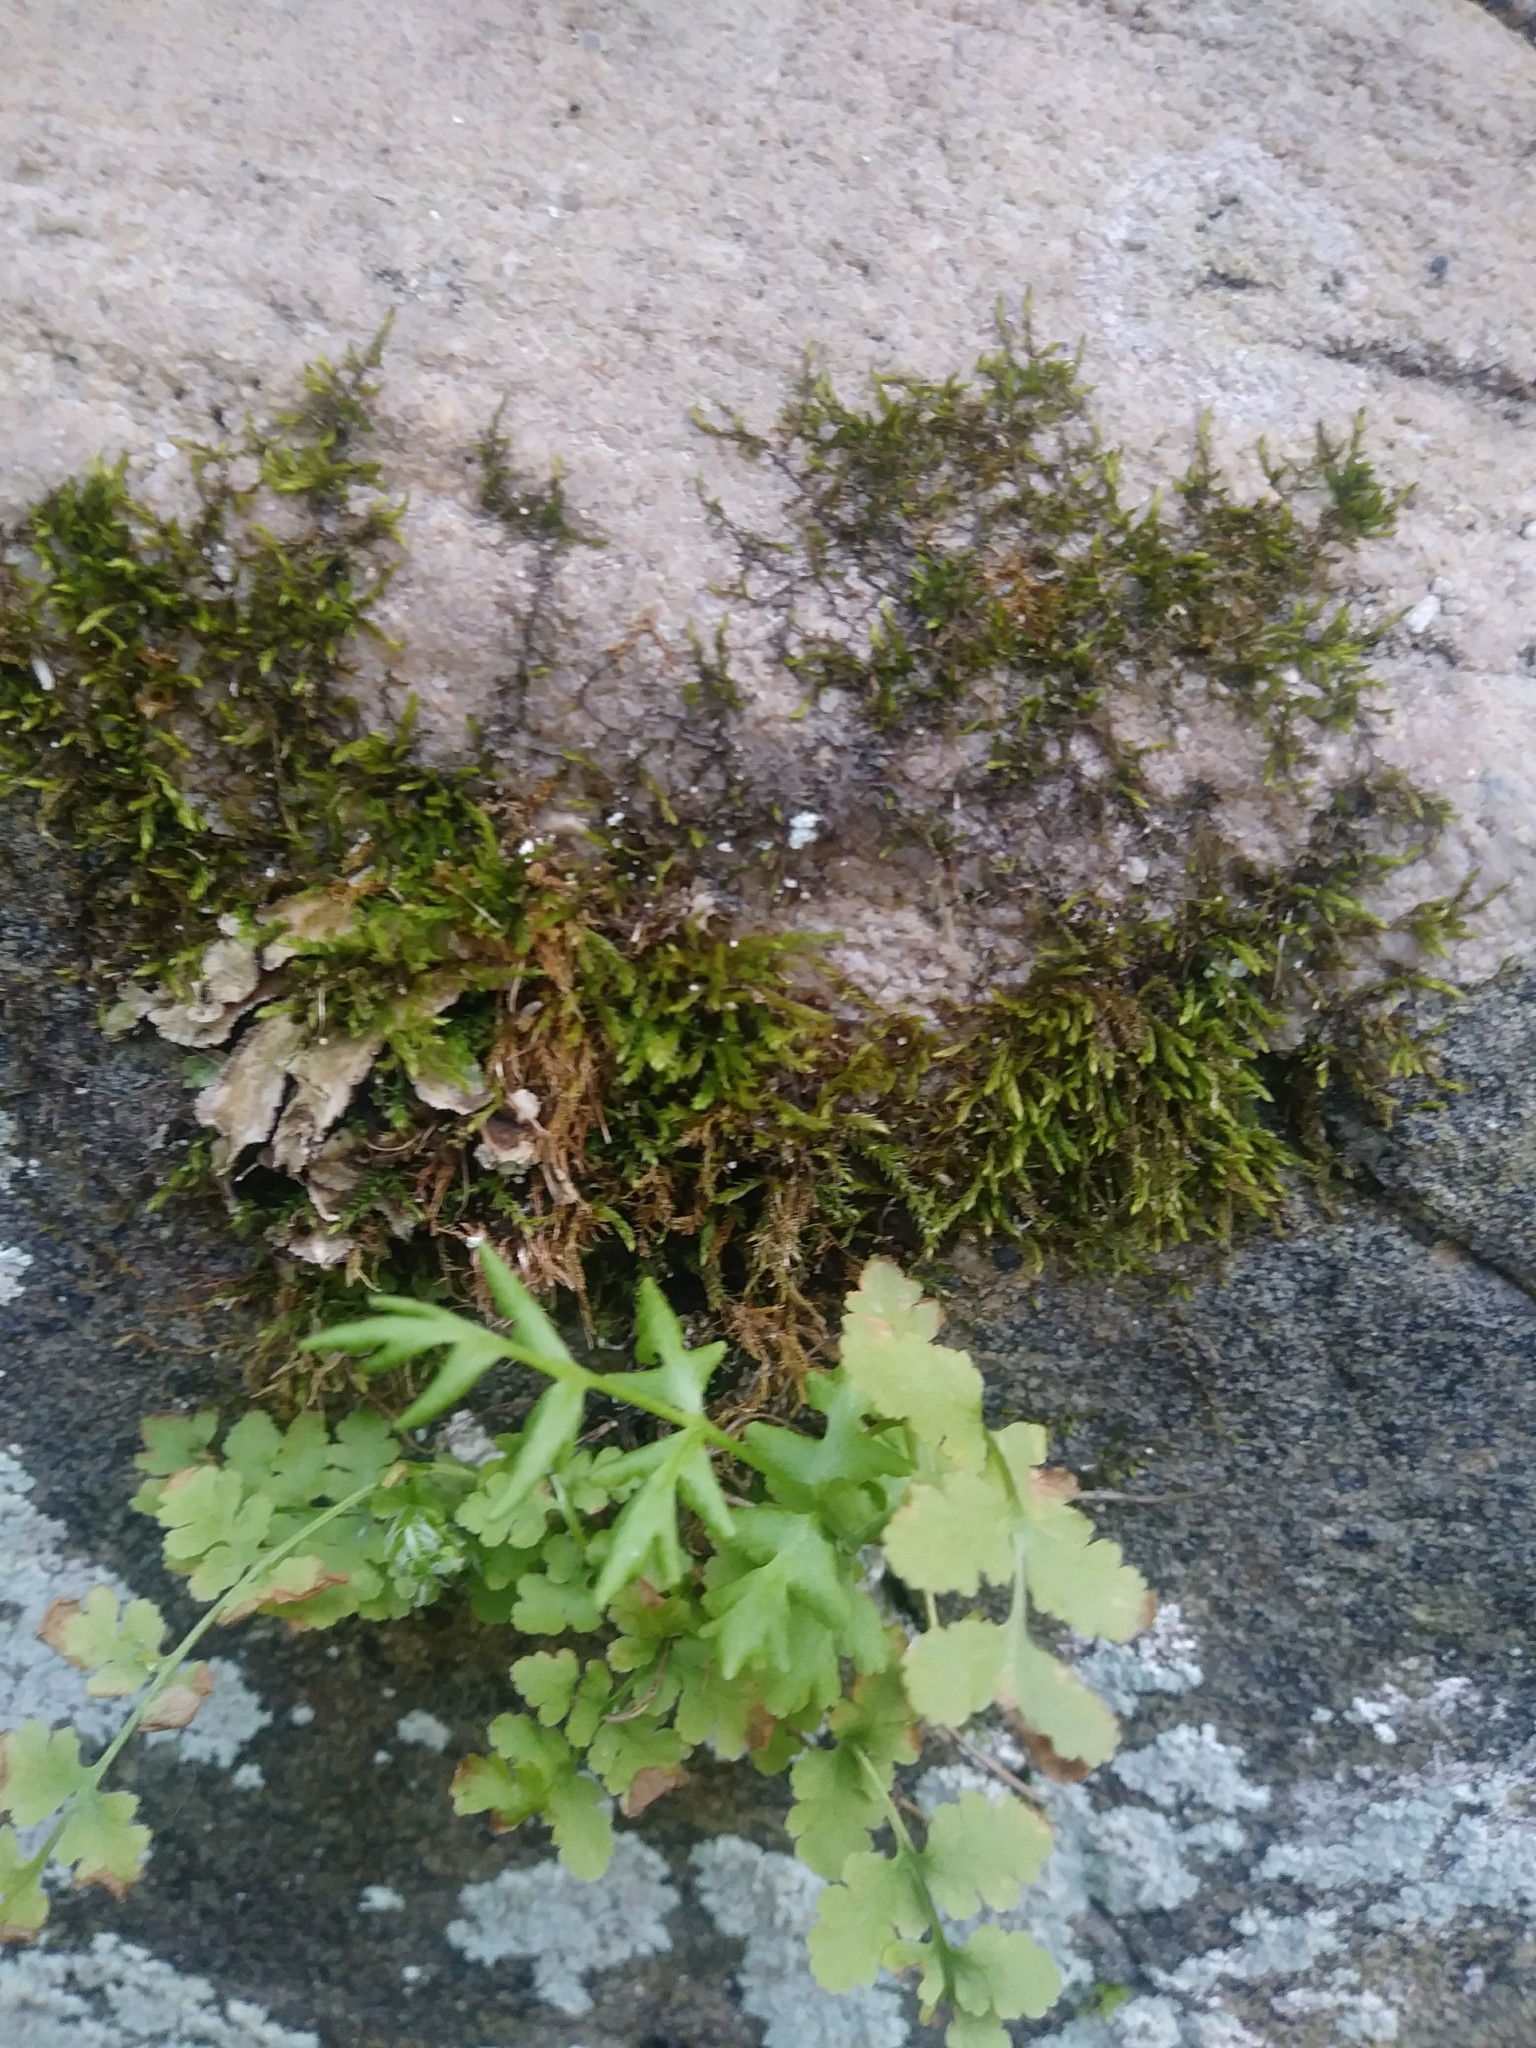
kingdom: Plantae
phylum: Tracheophyta
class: Polypodiopsida
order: Polypodiales
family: Woodsiaceae
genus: Physematium
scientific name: Physematium obtusum
